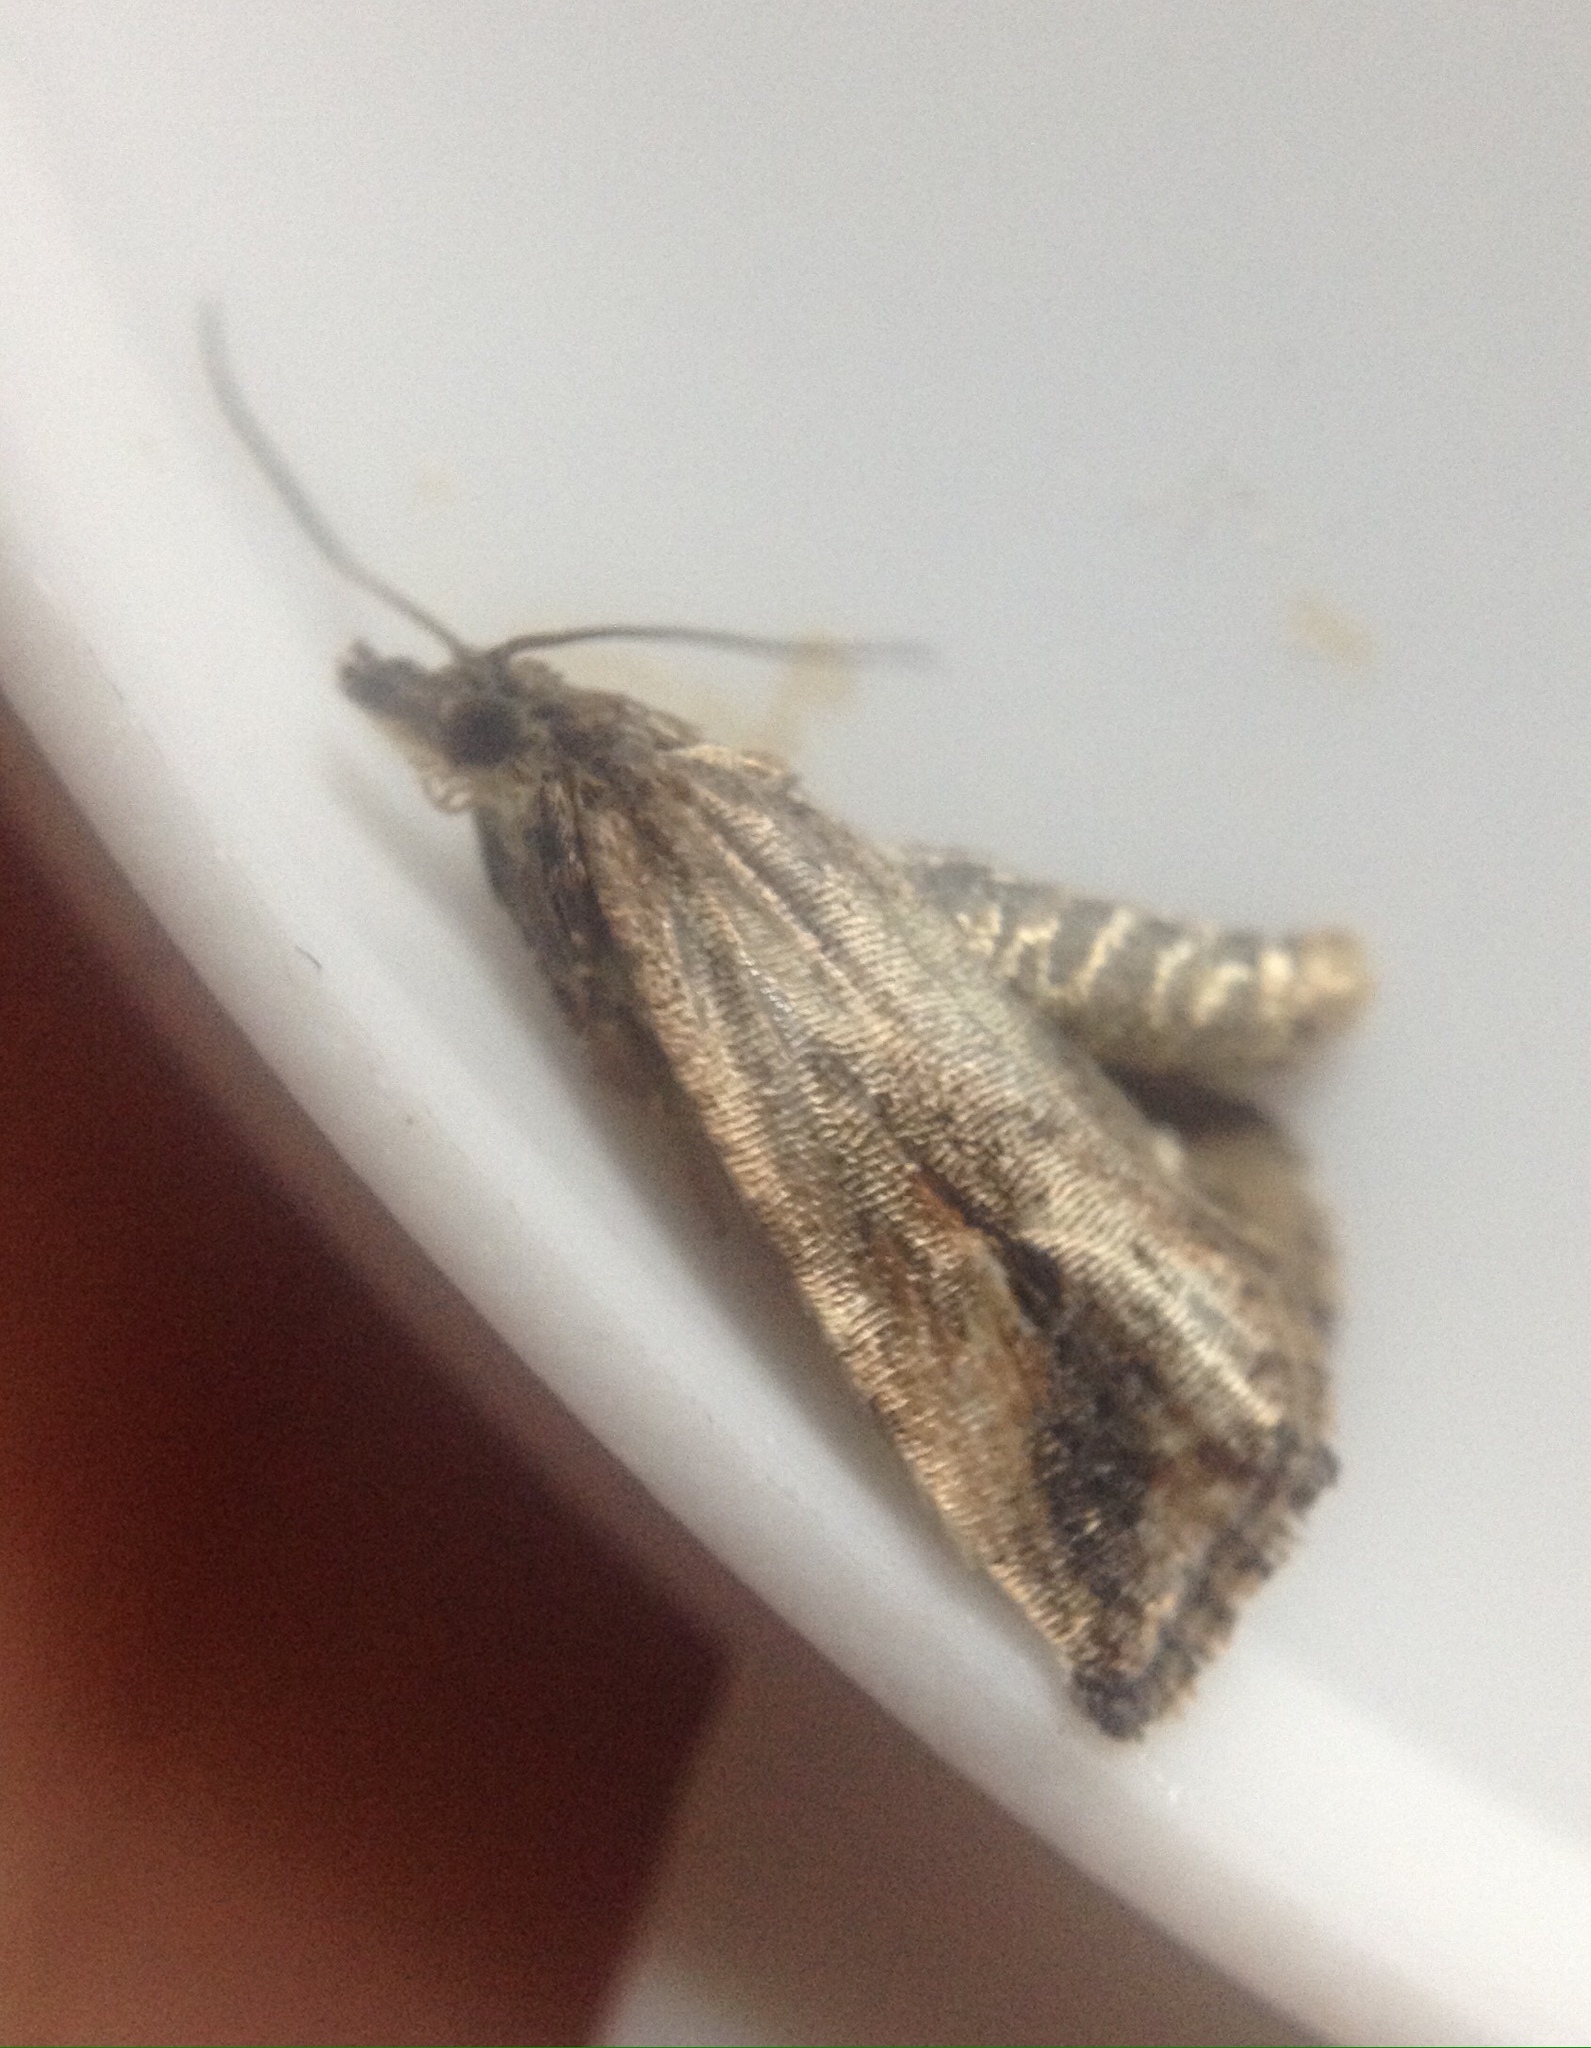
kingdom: Animalia
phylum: Arthropoda
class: Insecta
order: Lepidoptera
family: Tortricidae
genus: Endothenia
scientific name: Endothenia quadrimaculana
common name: Tortricid moth
